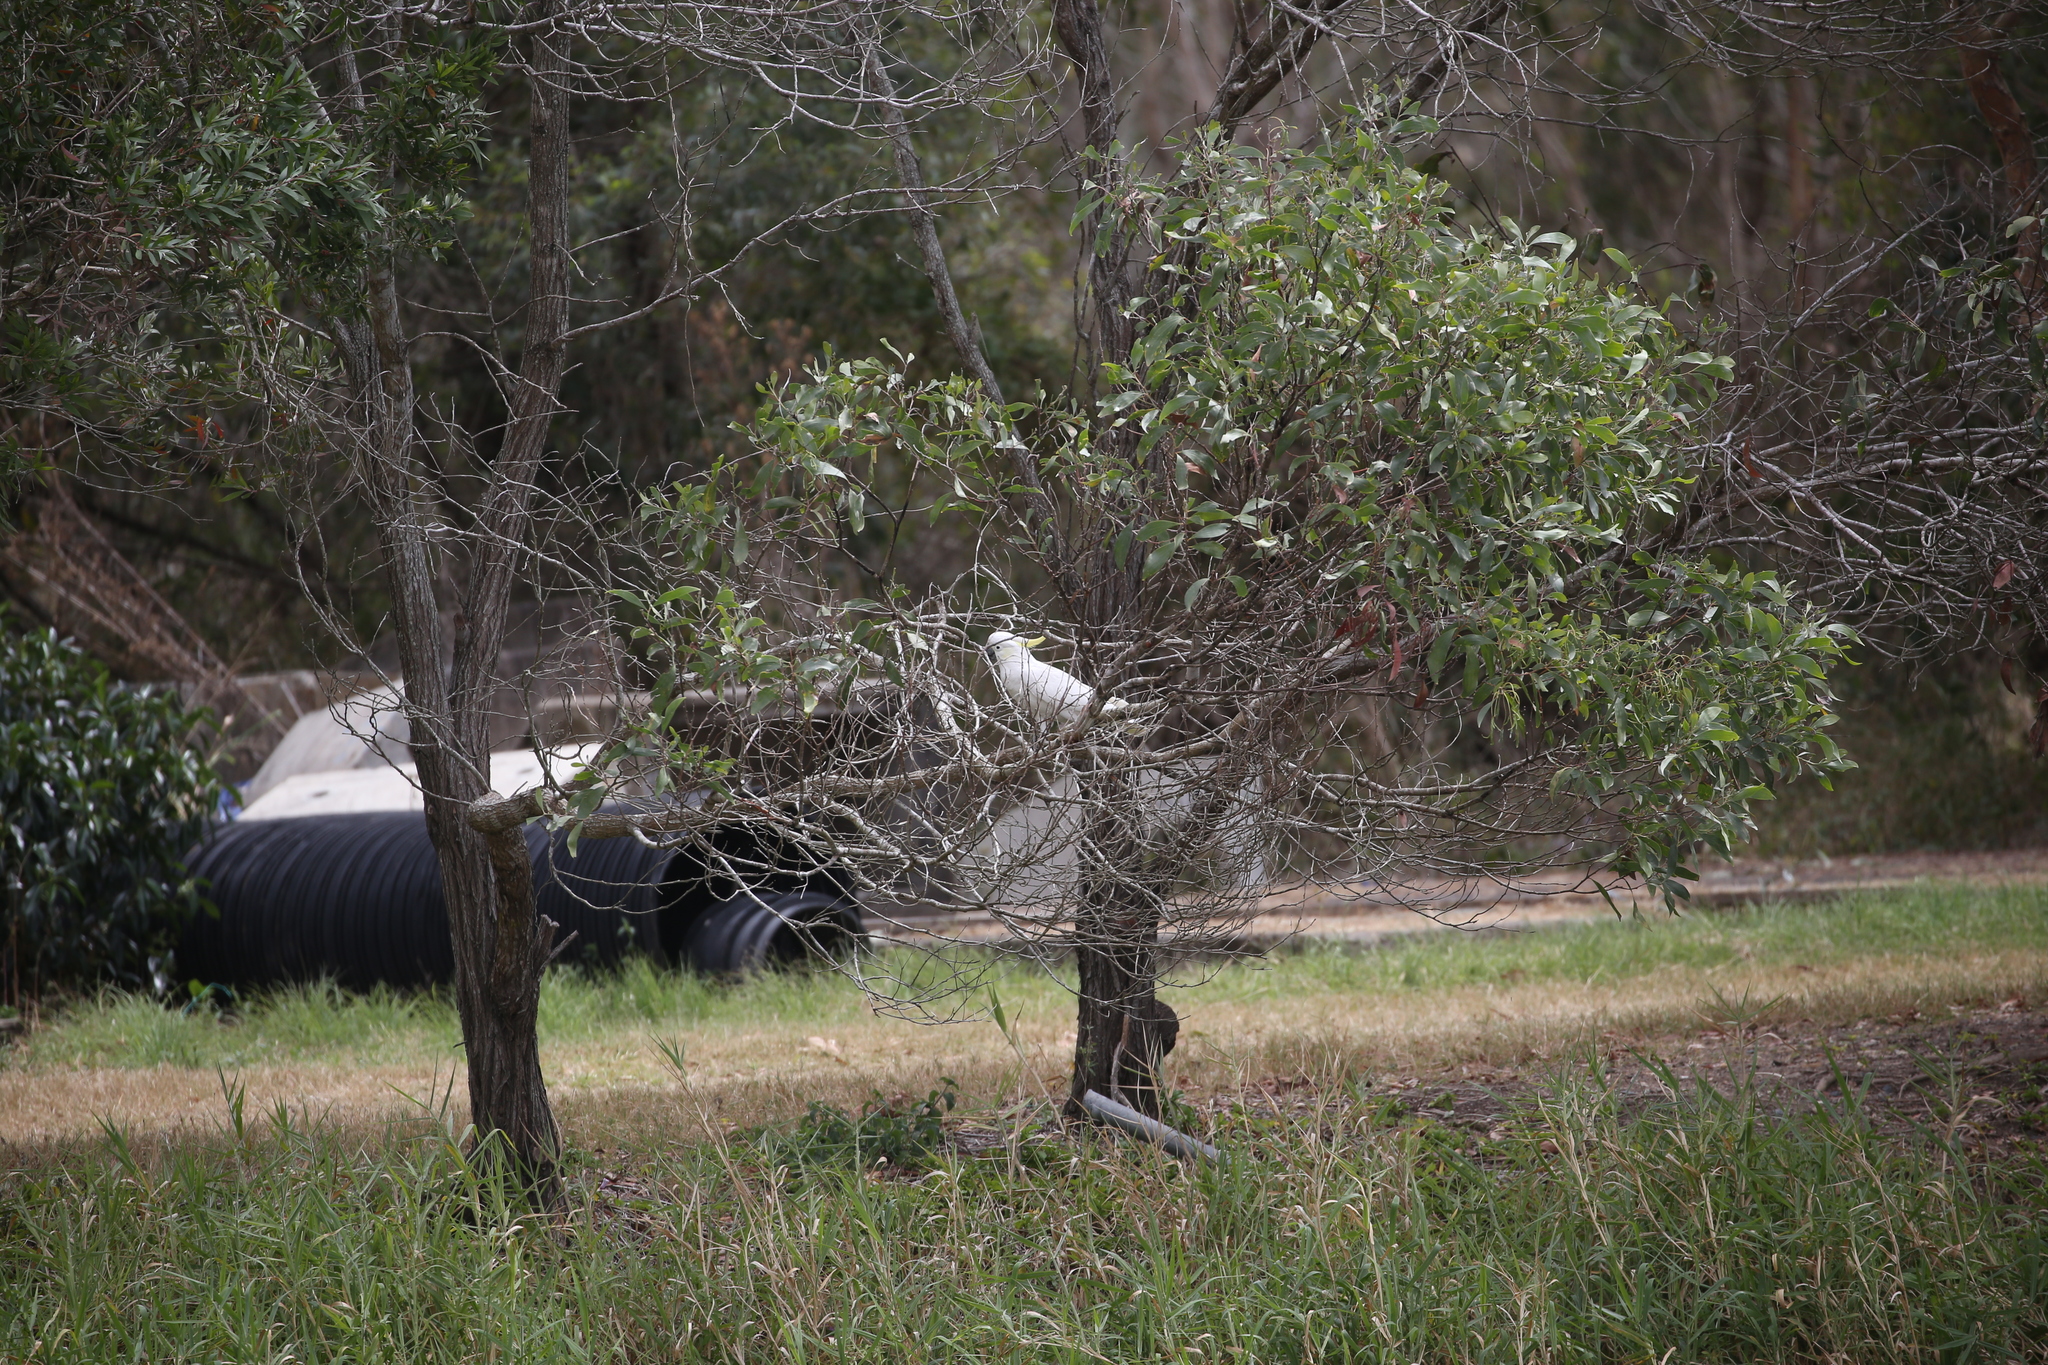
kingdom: Animalia
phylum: Chordata
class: Aves
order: Psittaciformes
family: Psittacidae
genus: Cacatua
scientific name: Cacatua galerita
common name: Sulphur-crested cockatoo
